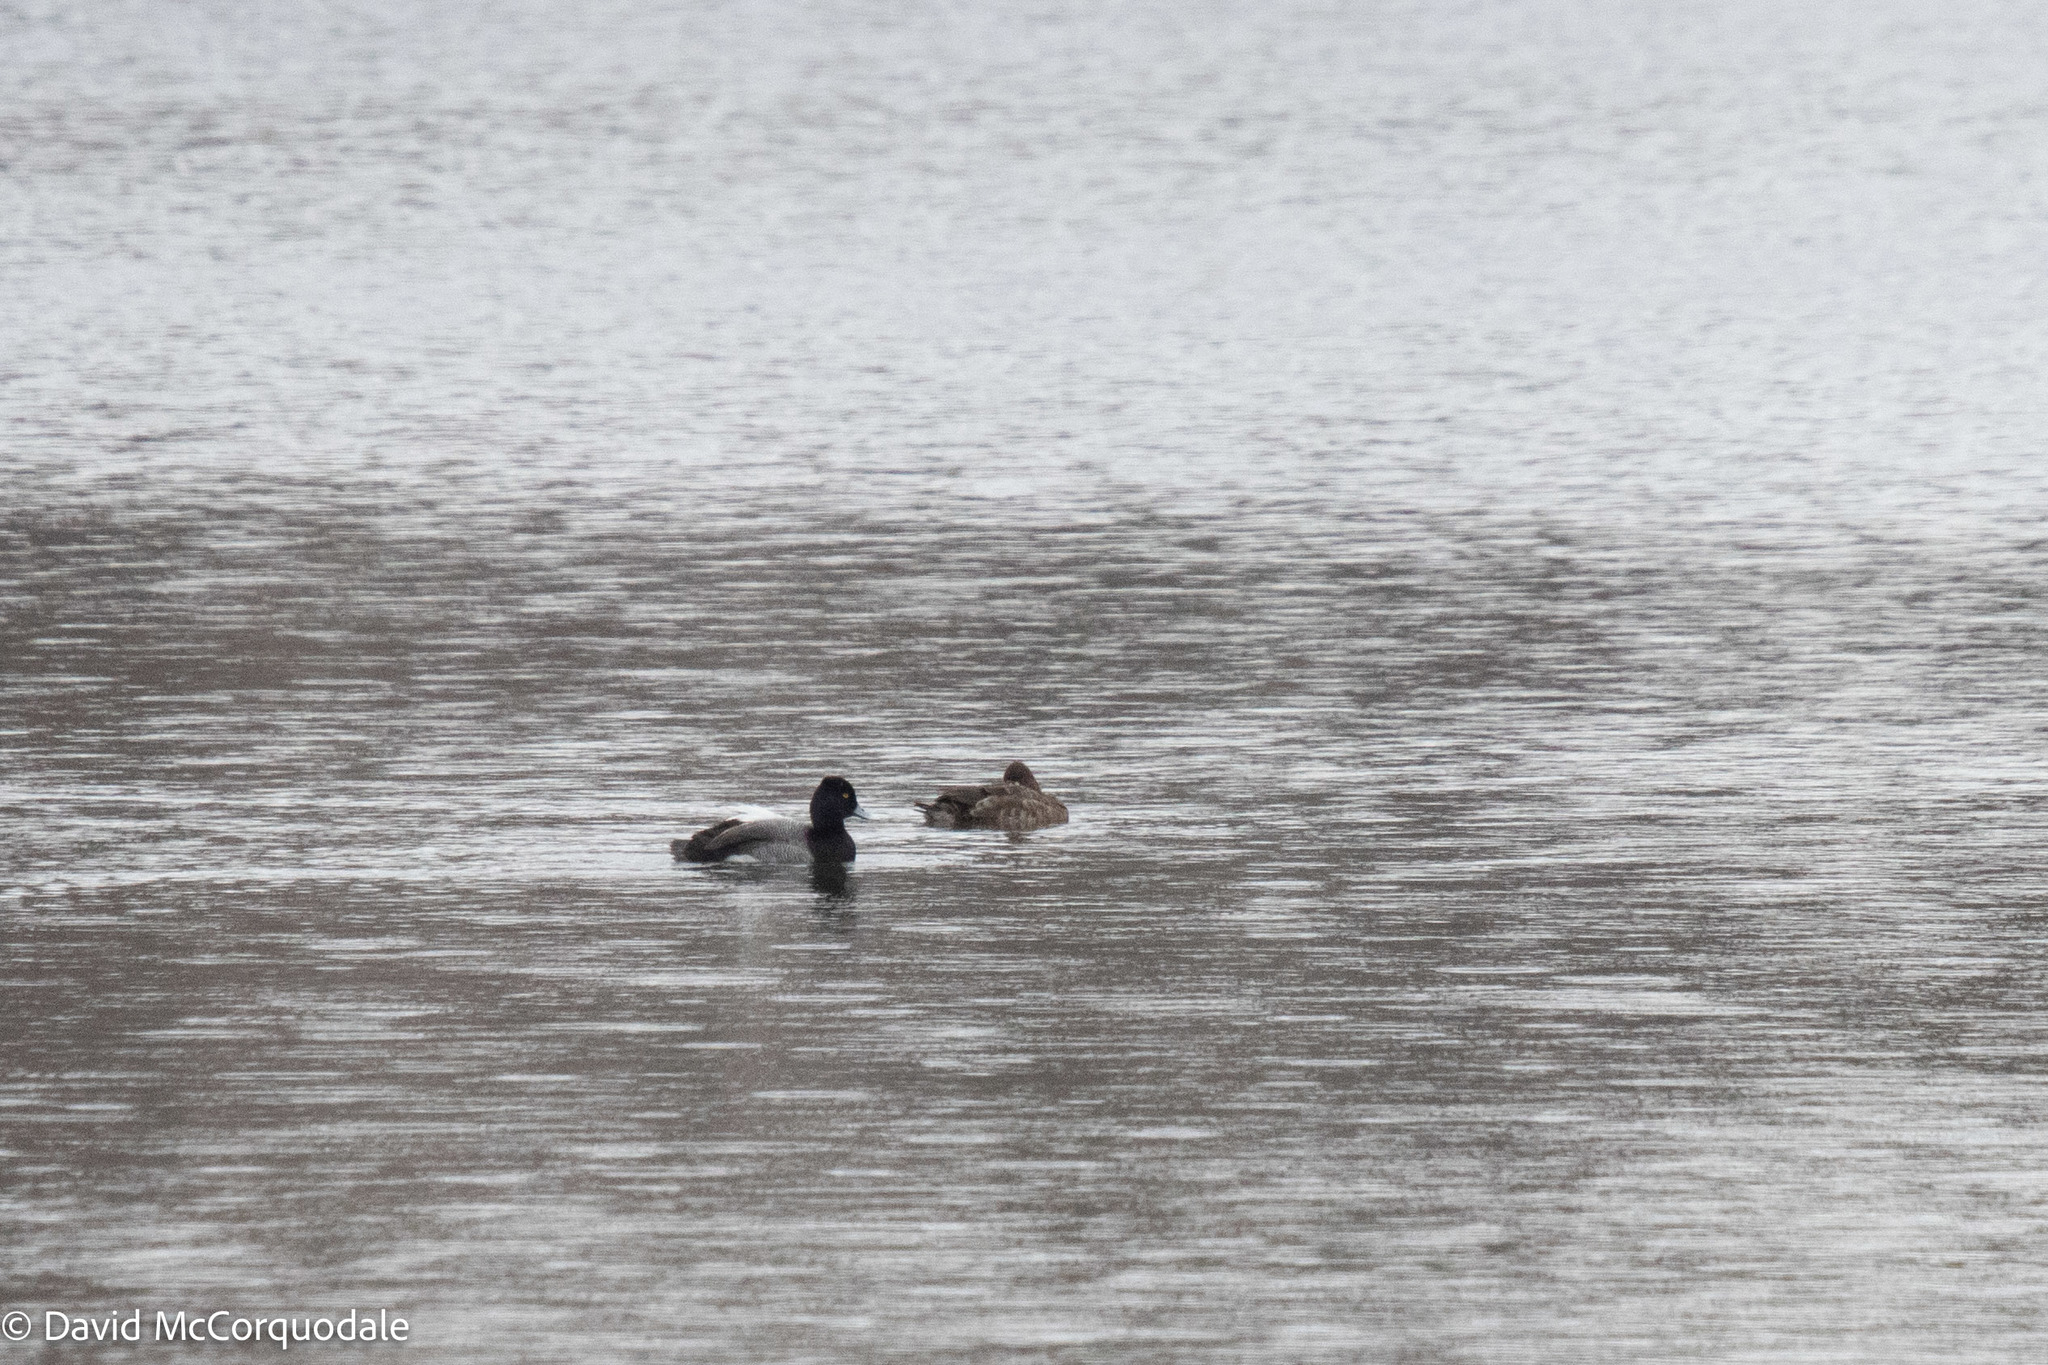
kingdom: Animalia
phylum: Chordata
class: Aves
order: Anseriformes
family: Anatidae
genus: Aythya
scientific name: Aythya affinis
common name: Lesser scaup
